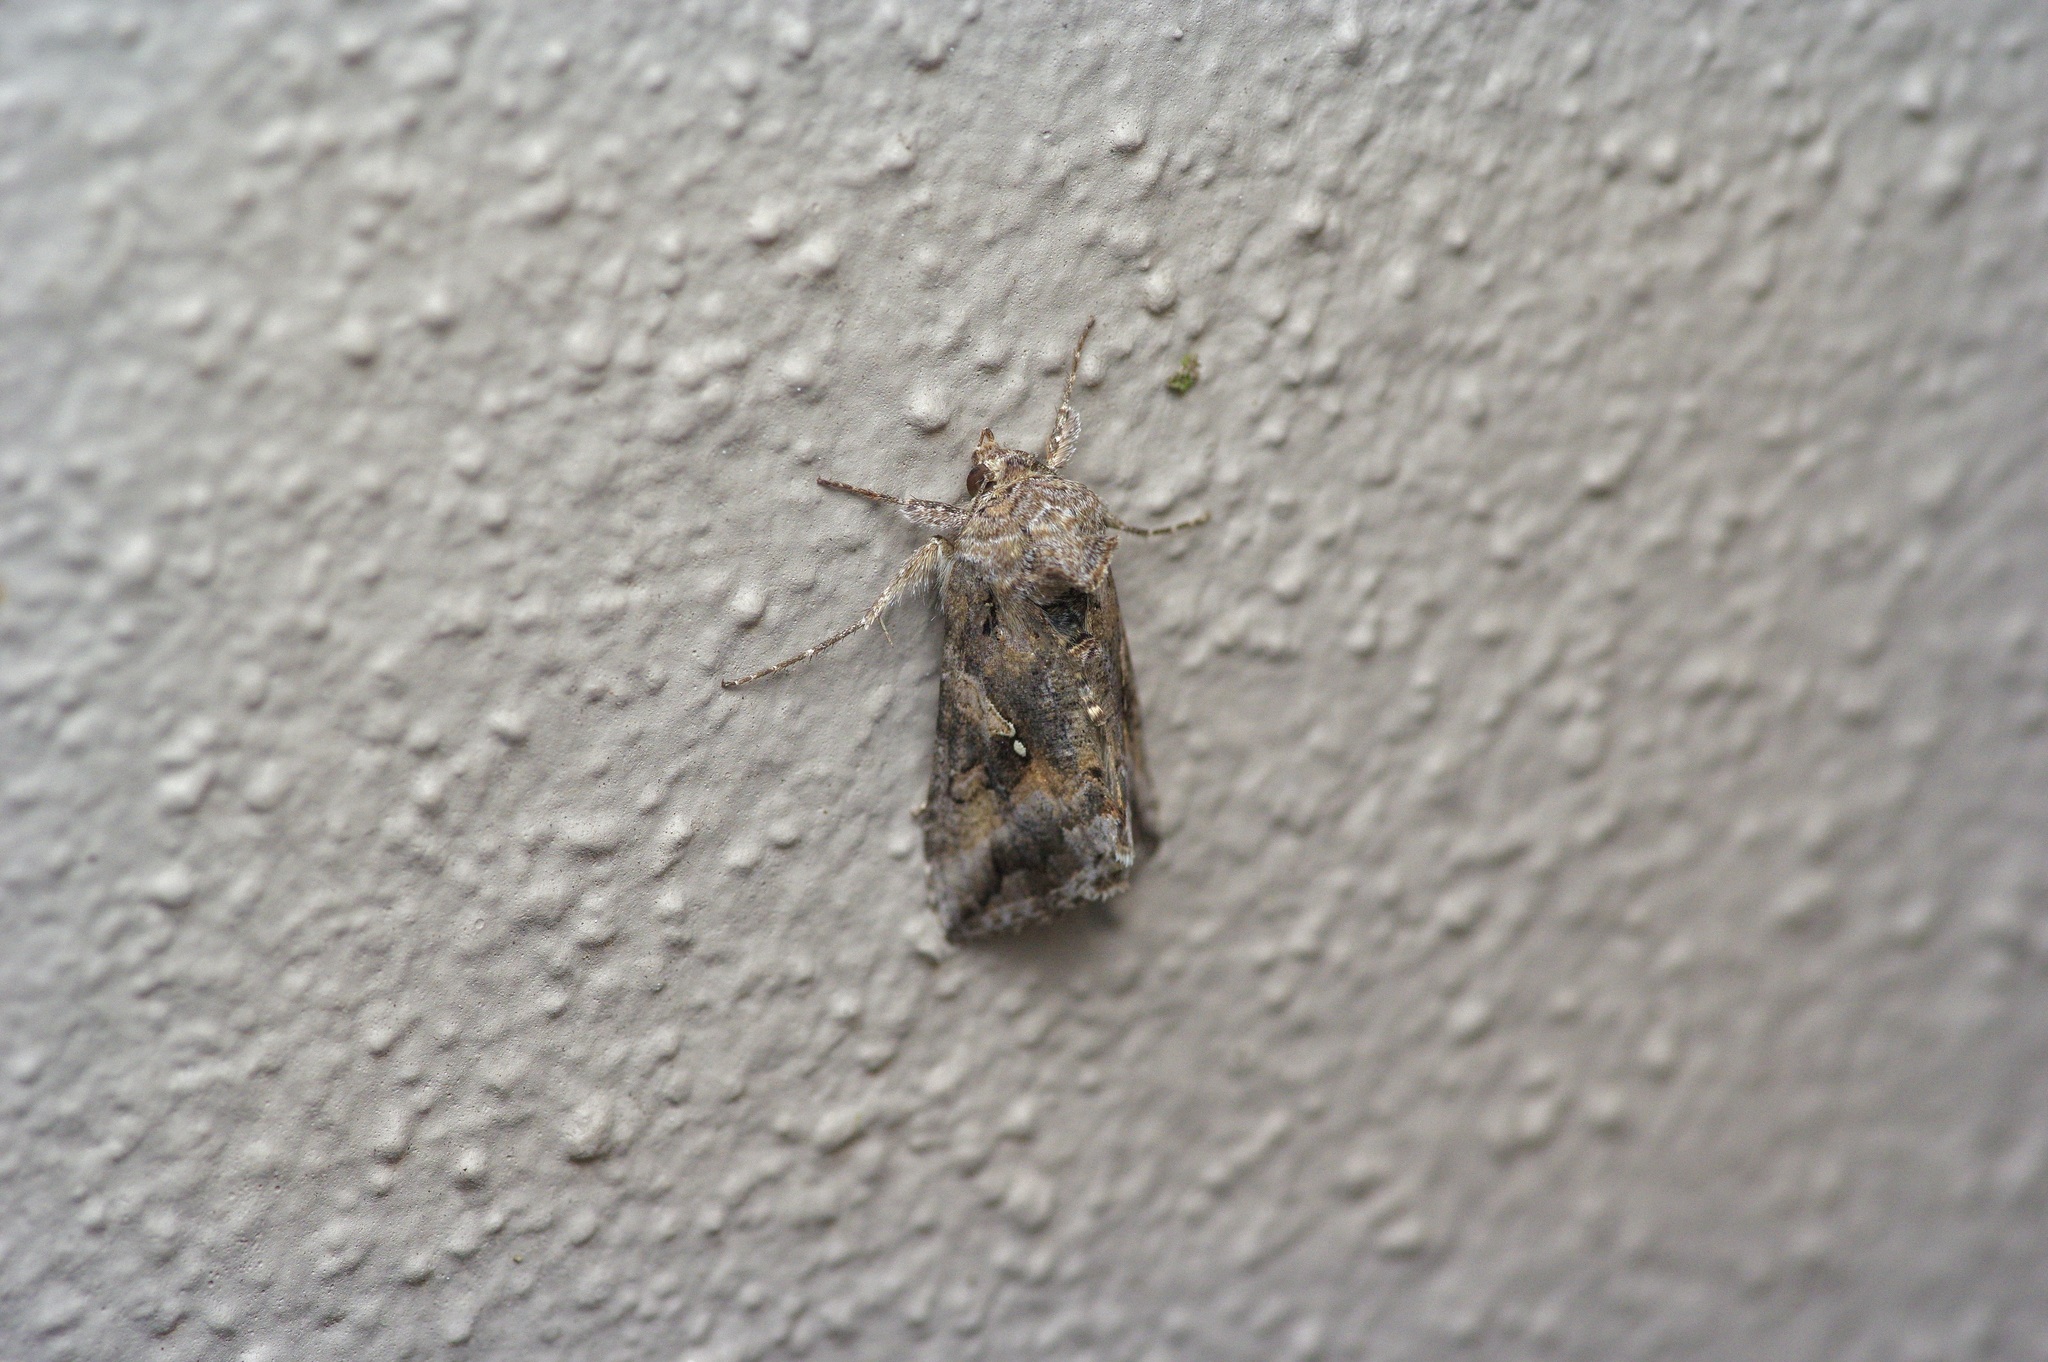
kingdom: Animalia
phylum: Arthropoda
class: Insecta
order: Lepidoptera
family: Noctuidae
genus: Rachiplusia
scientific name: Rachiplusia ou
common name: Gray looper moth
